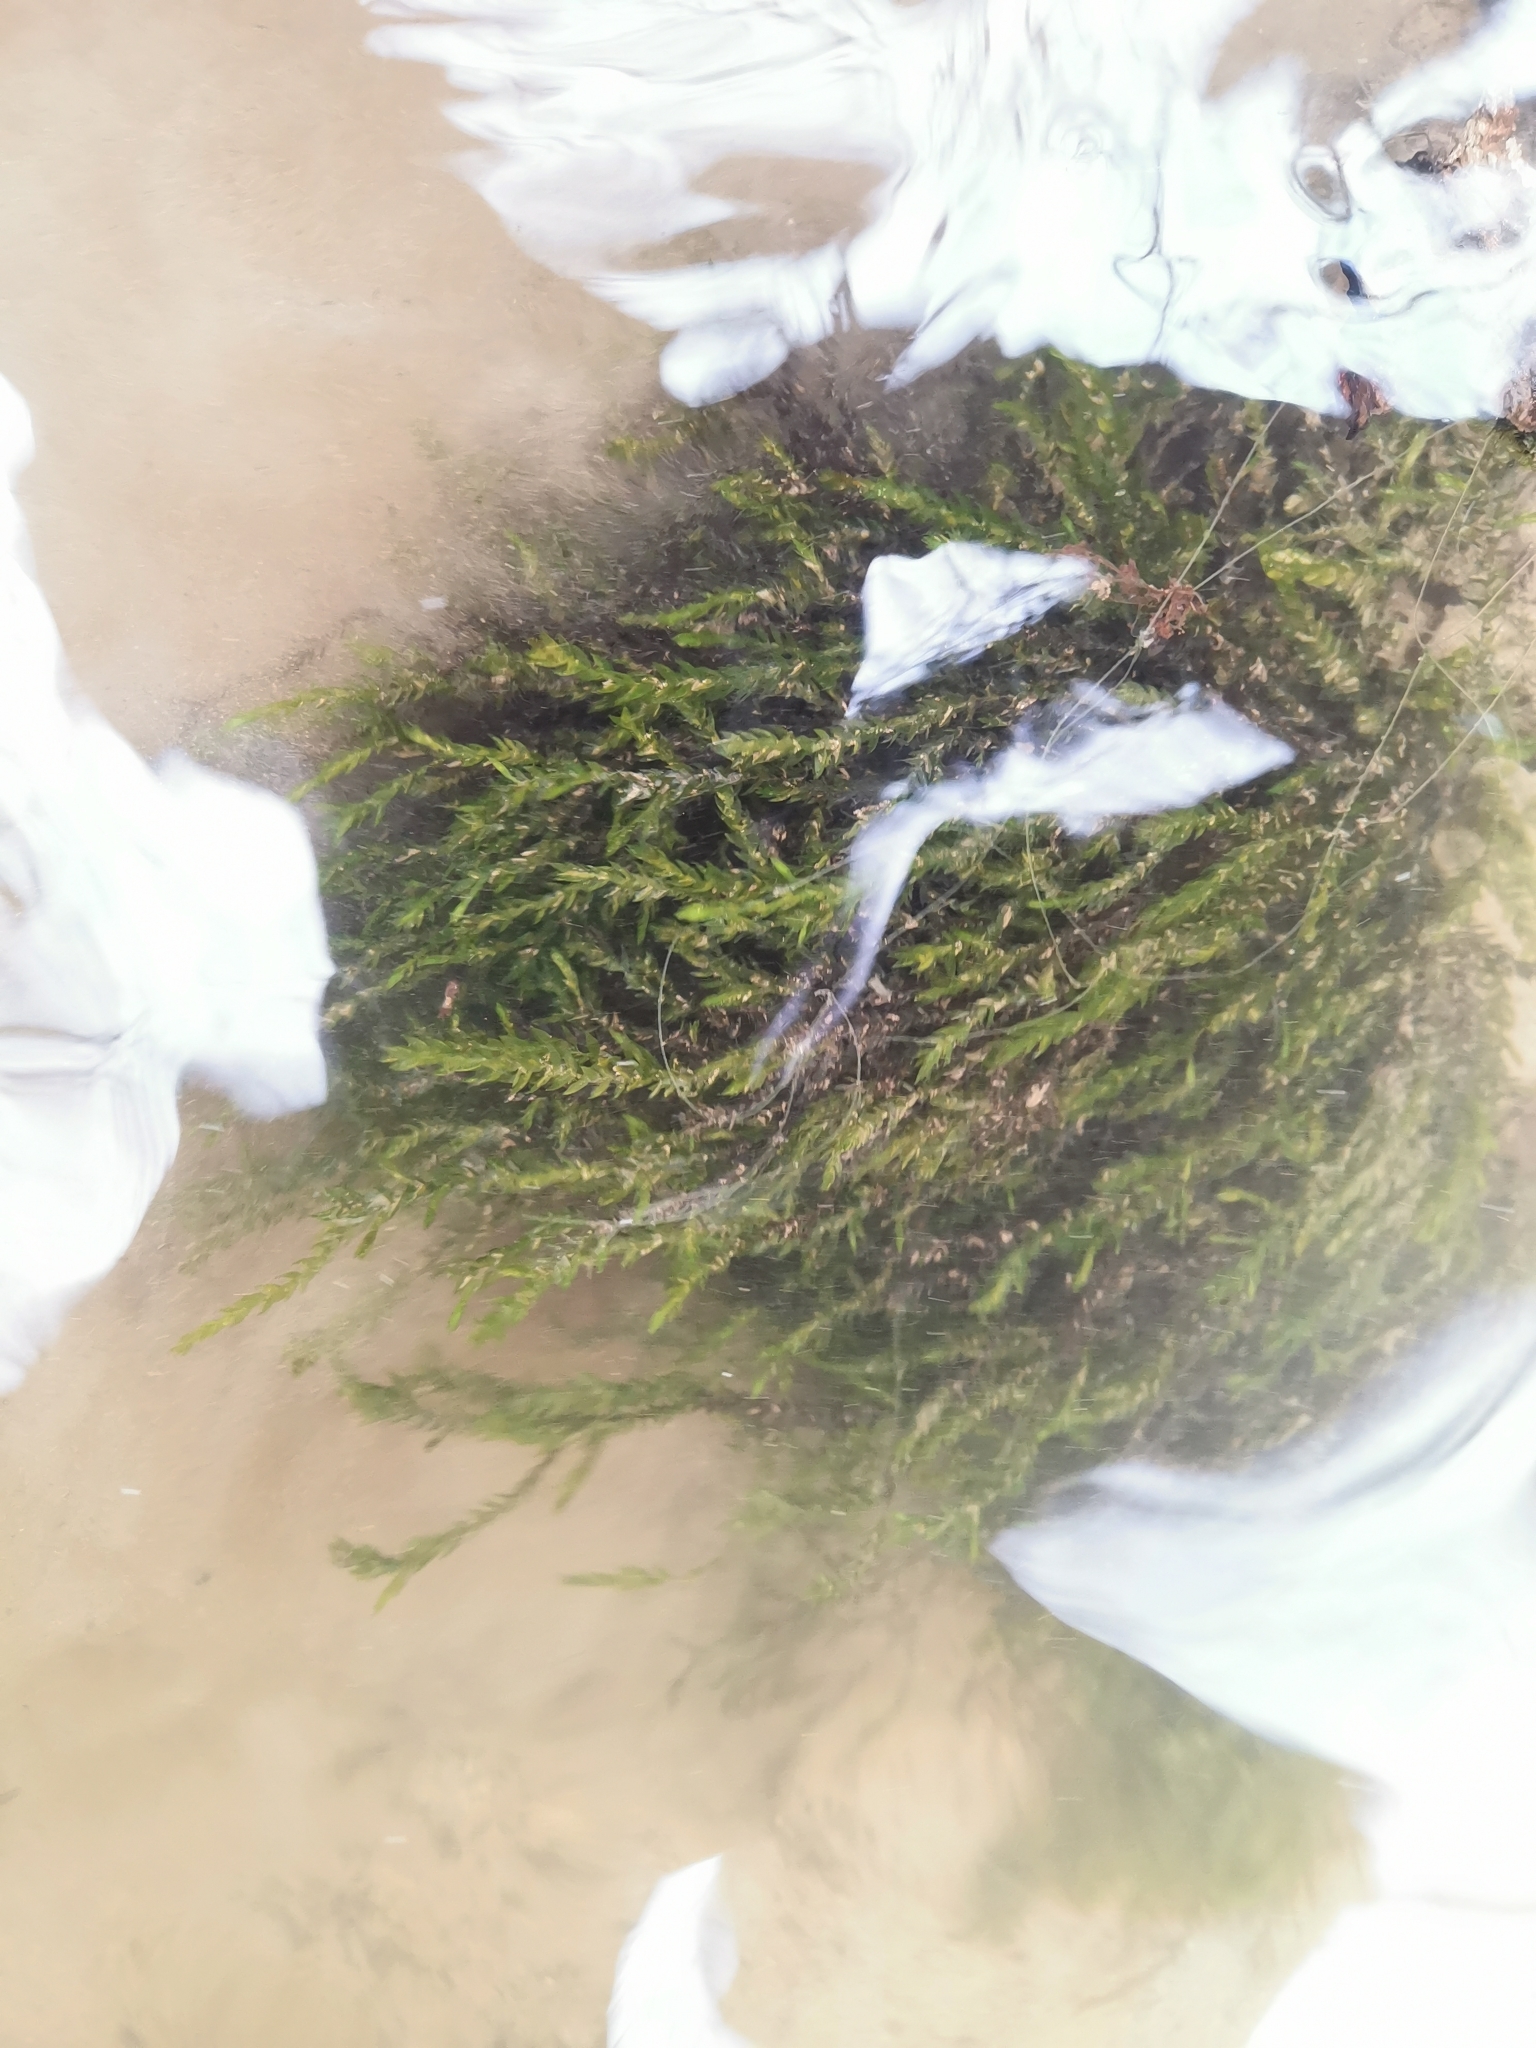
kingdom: Plantae
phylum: Bryophyta
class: Bryopsida
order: Hypnales
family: Fontinalaceae
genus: Fontinalis
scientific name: Fontinalis antipyretica
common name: Greater water-moss
